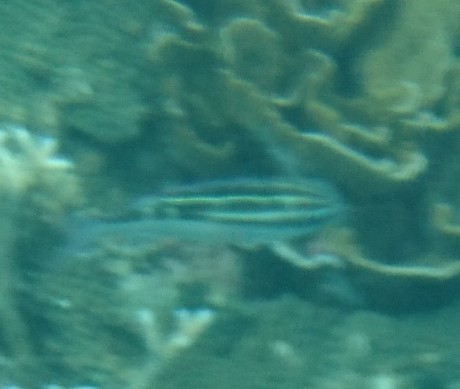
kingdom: Animalia
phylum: Chordata
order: Perciformes
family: Nemipteridae
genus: Scolopsis
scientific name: Scolopsis lineata
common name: Striped monocle bream
